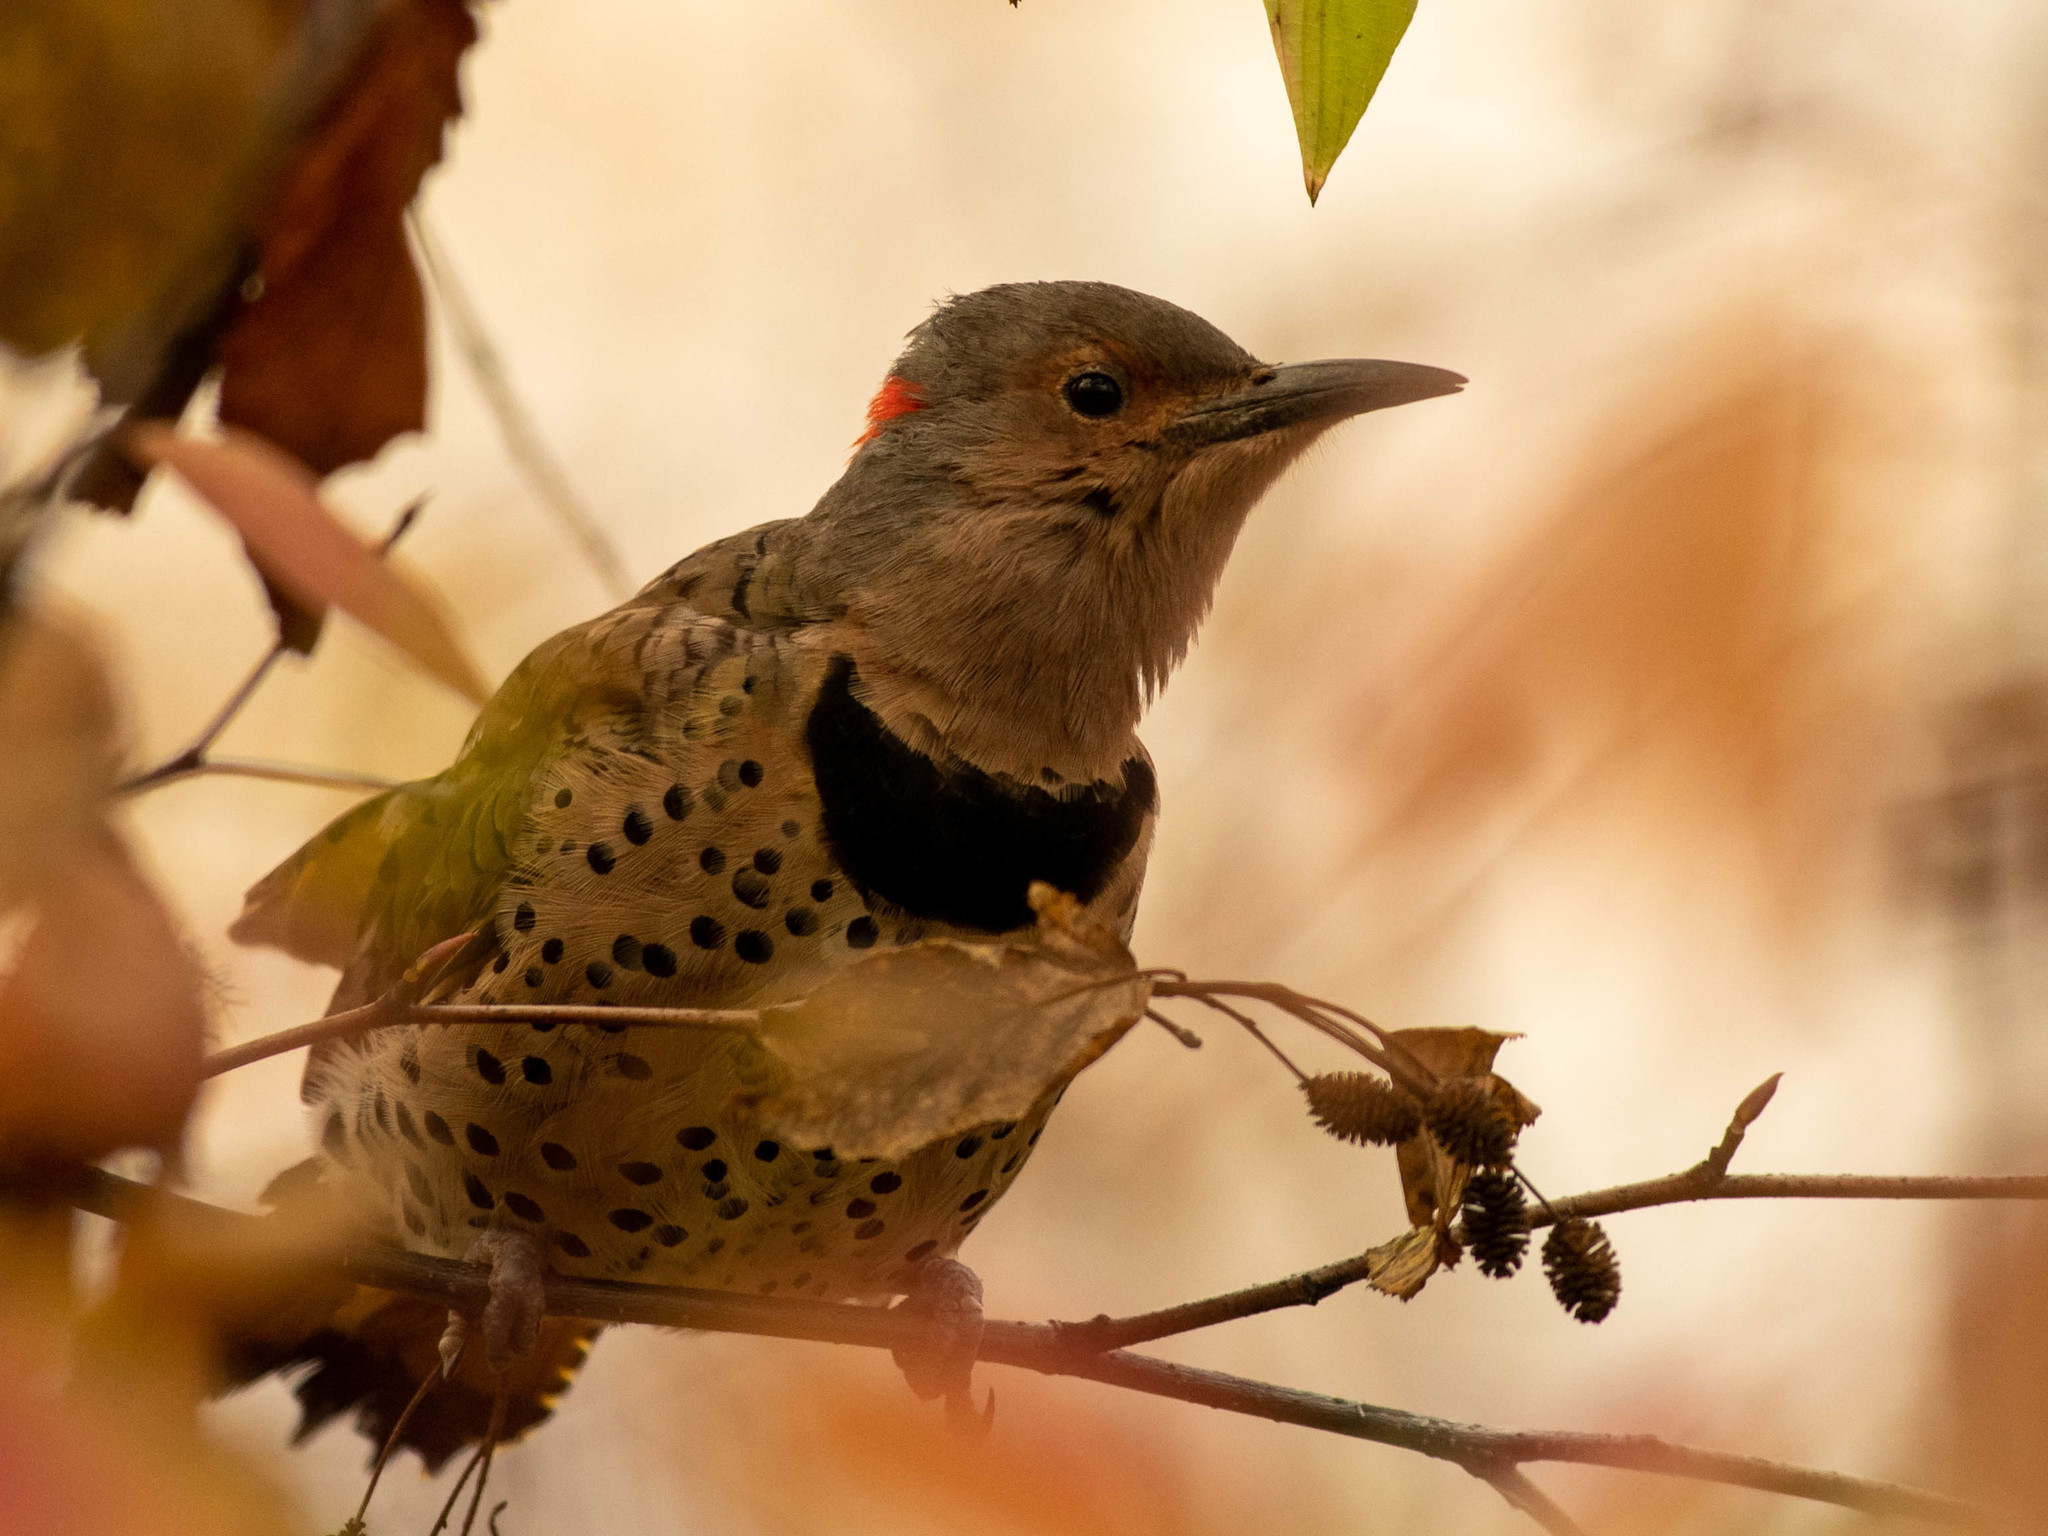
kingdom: Animalia
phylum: Chordata
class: Aves
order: Piciformes
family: Picidae
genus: Colaptes
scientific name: Colaptes auratus
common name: Northern flicker
